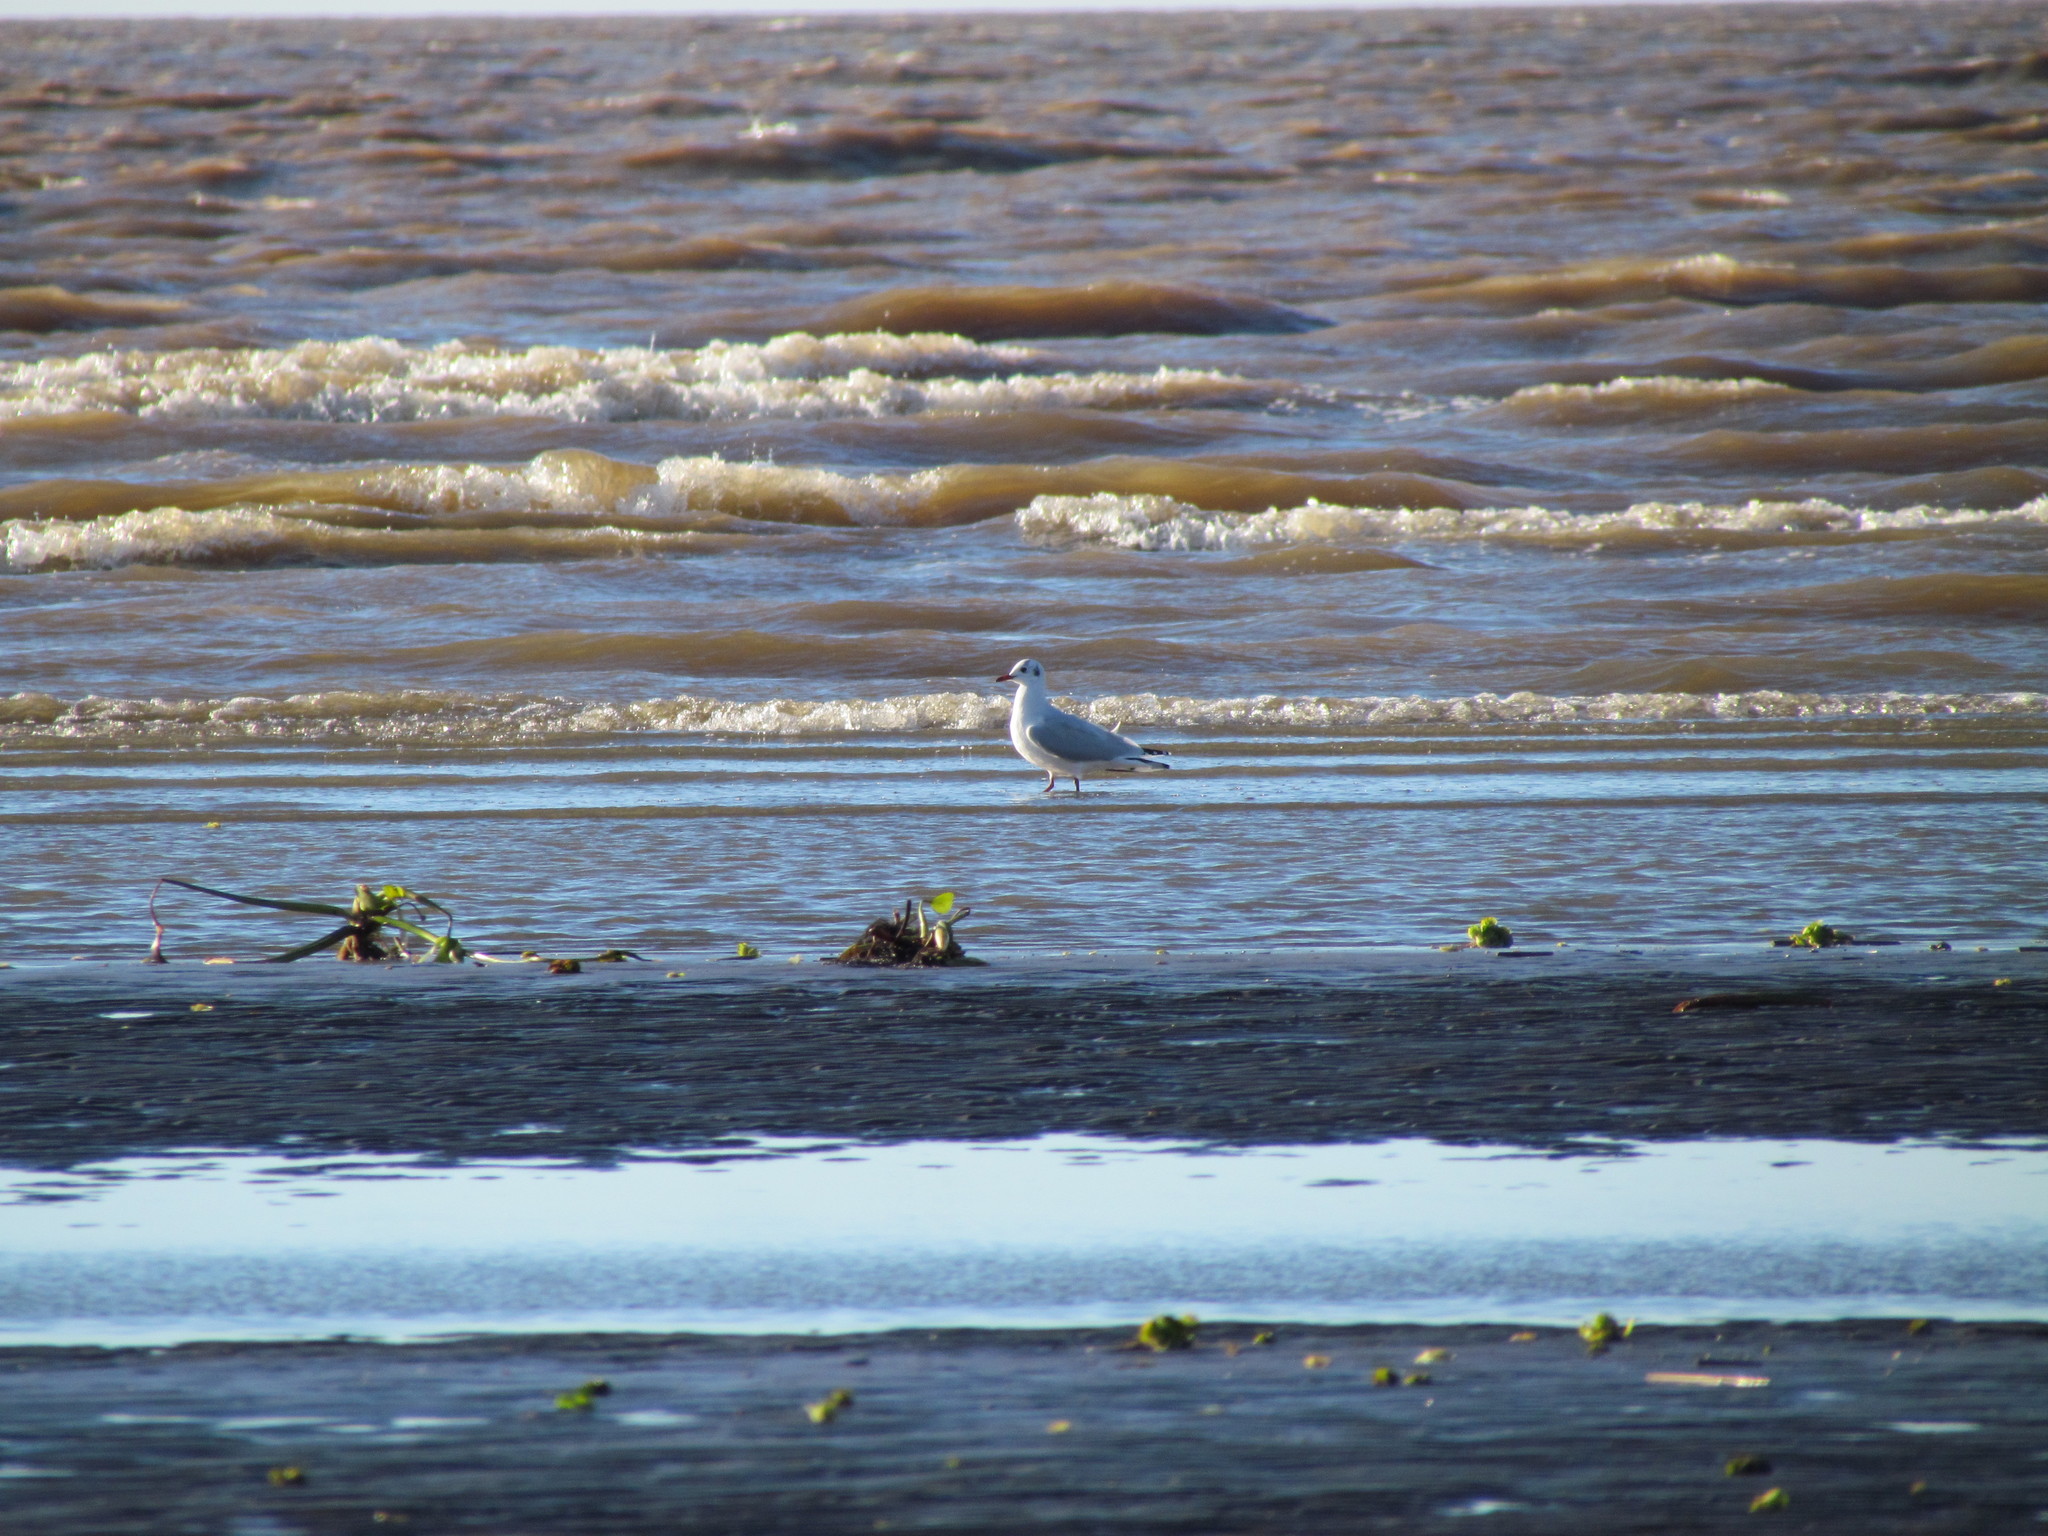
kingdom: Animalia
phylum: Chordata
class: Aves
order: Charadriiformes
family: Laridae
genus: Chroicocephalus
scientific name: Chroicocephalus maculipennis
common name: Brown-hooded gull
